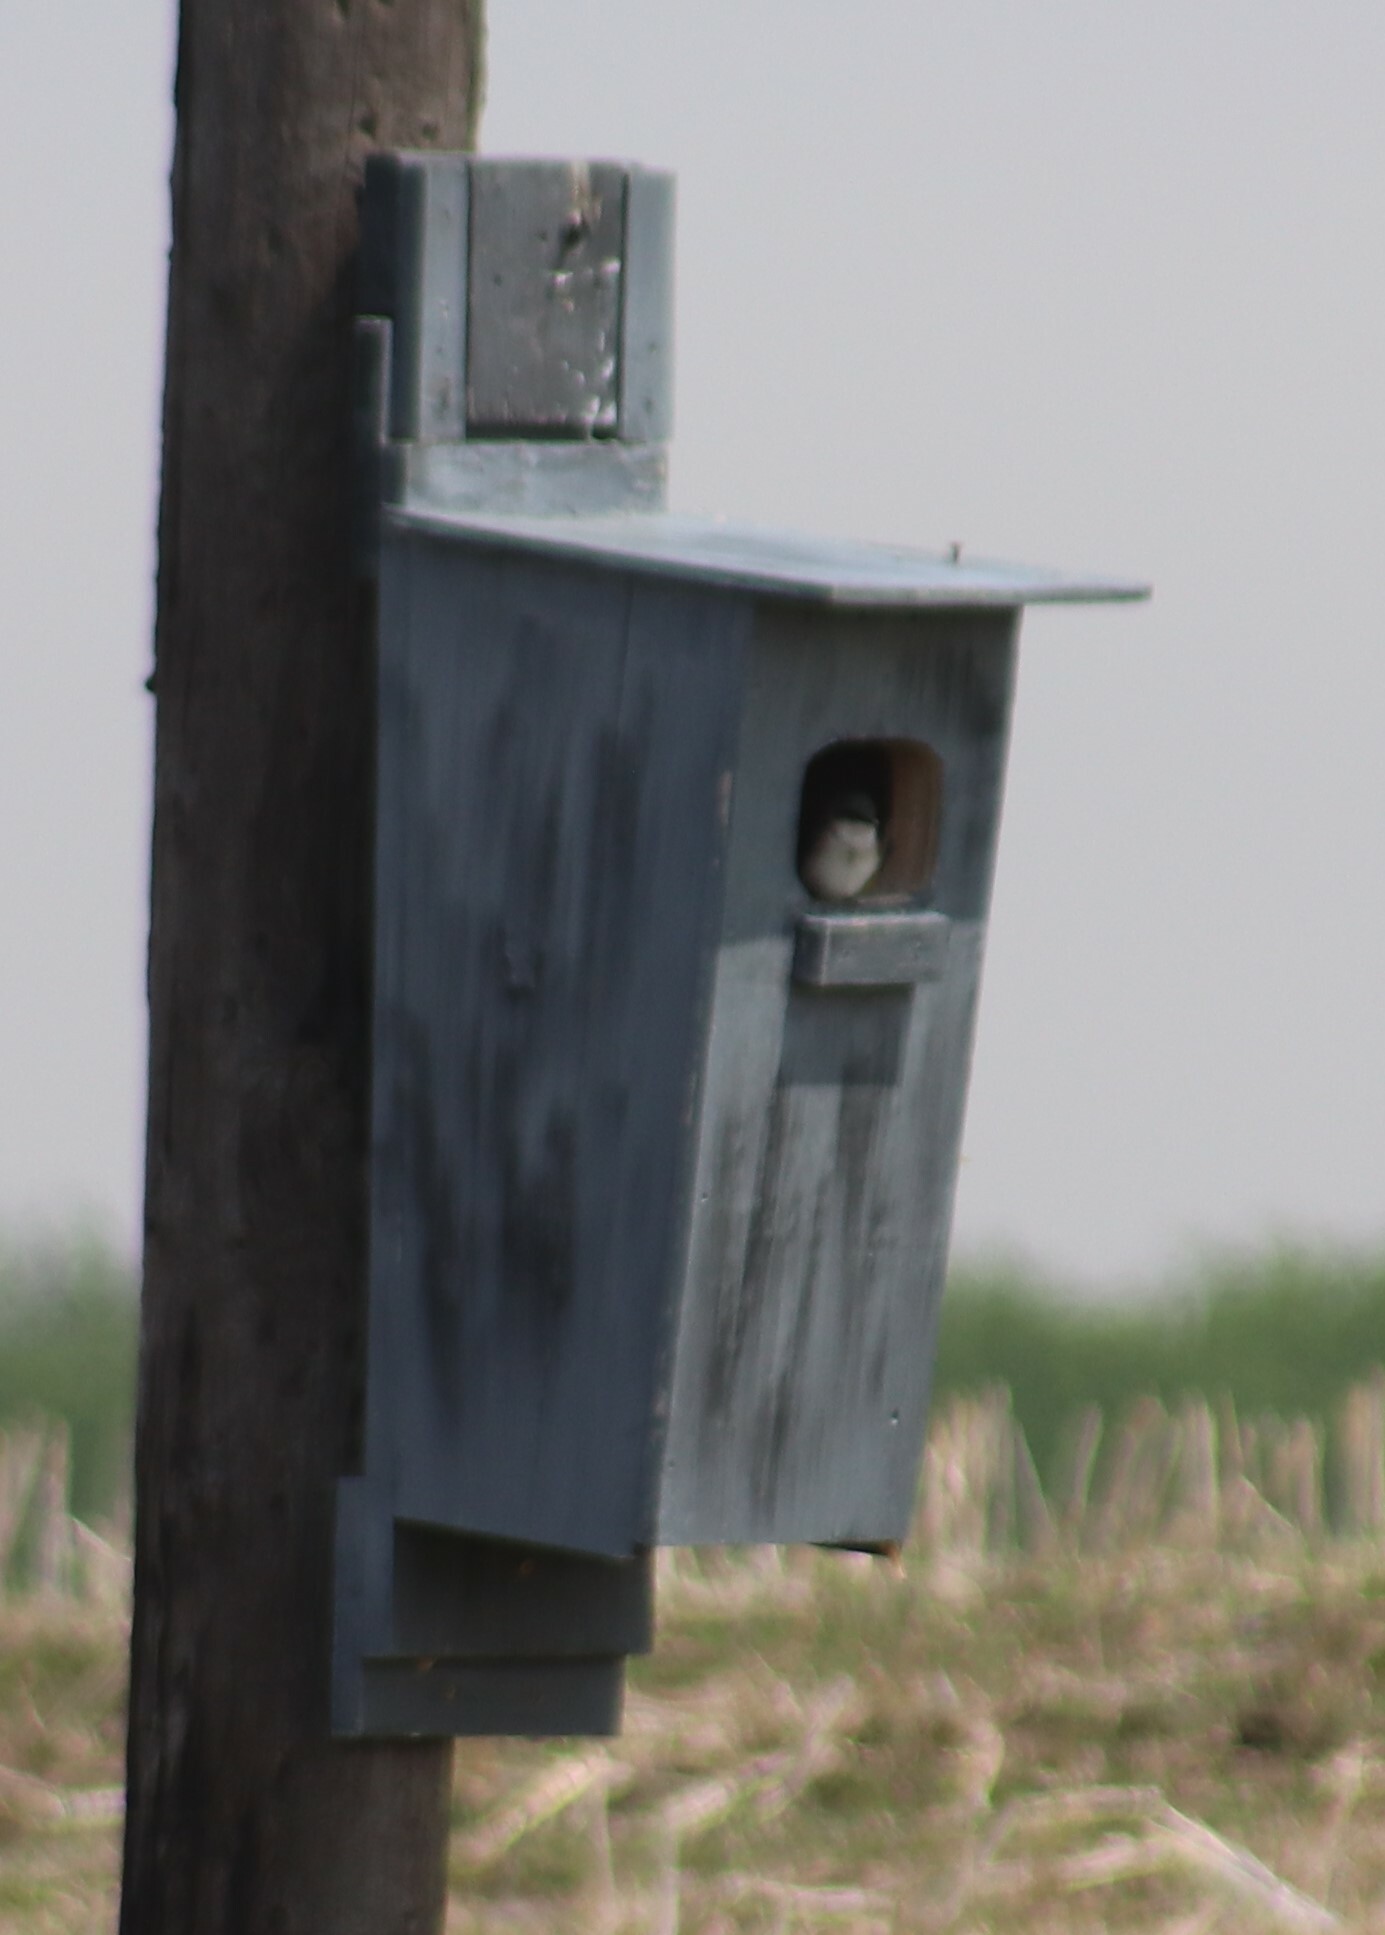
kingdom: Animalia
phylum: Chordata
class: Aves
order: Passeriformes
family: Hirundinidae
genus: Tachycineta
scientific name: Tachycineta bicolor
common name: Tree swallow
